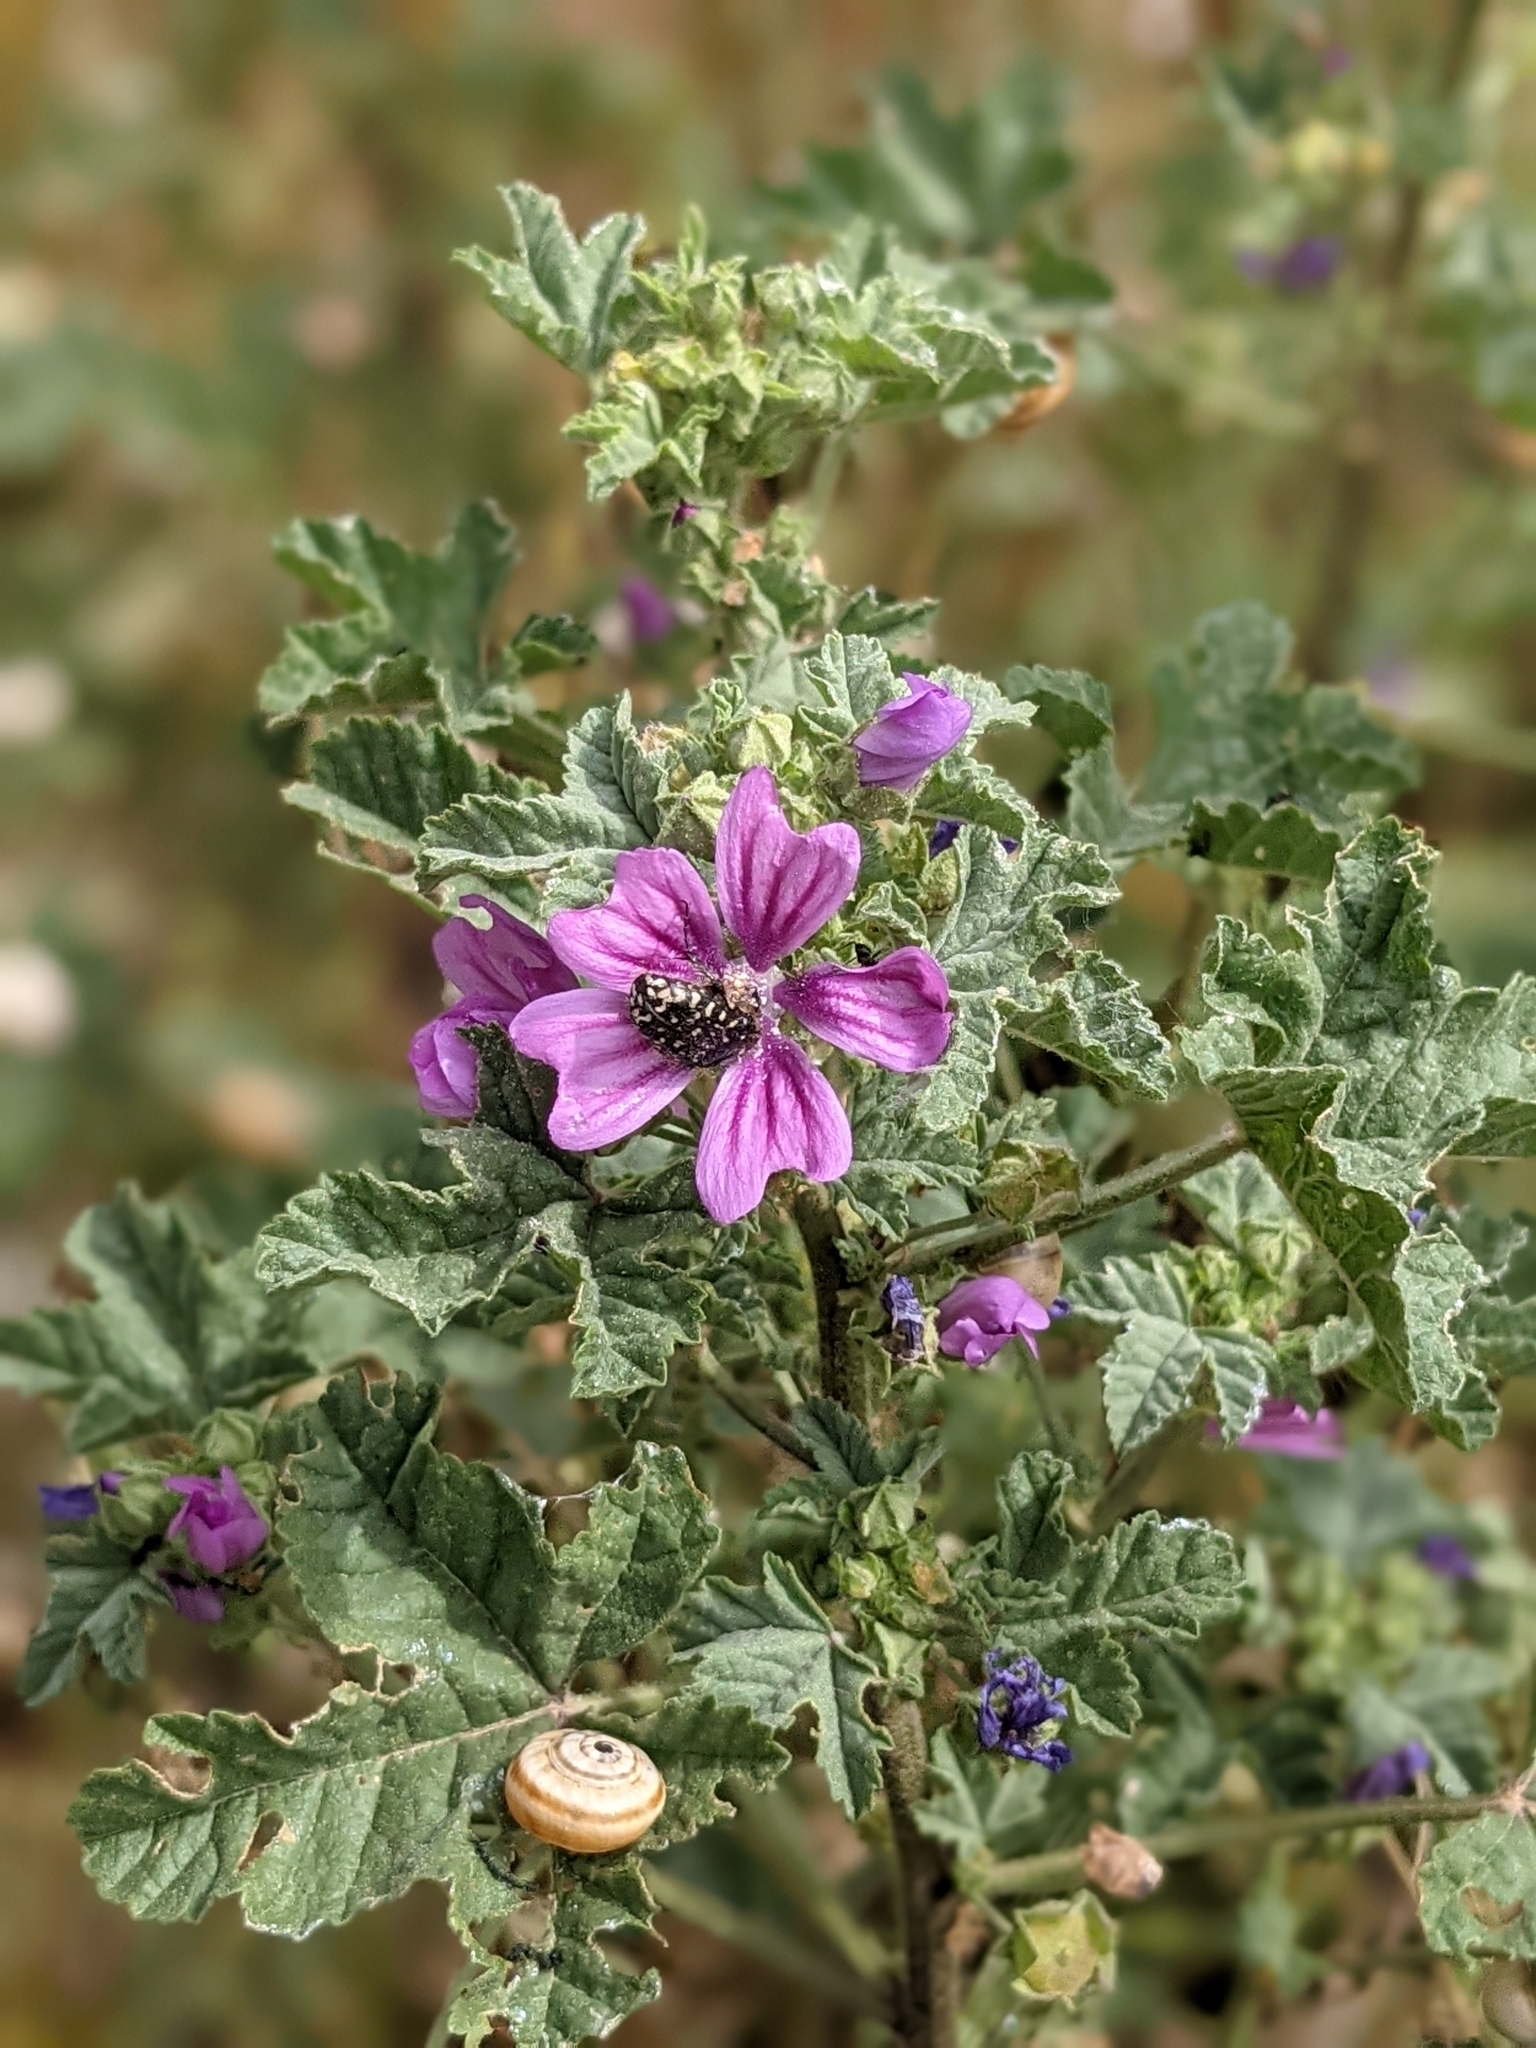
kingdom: Plantae
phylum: Tracheophyta
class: Magnoliopsida
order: Malvales
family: Malvaceae
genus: Malva
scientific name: Malva sylvestris
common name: Common mallow
